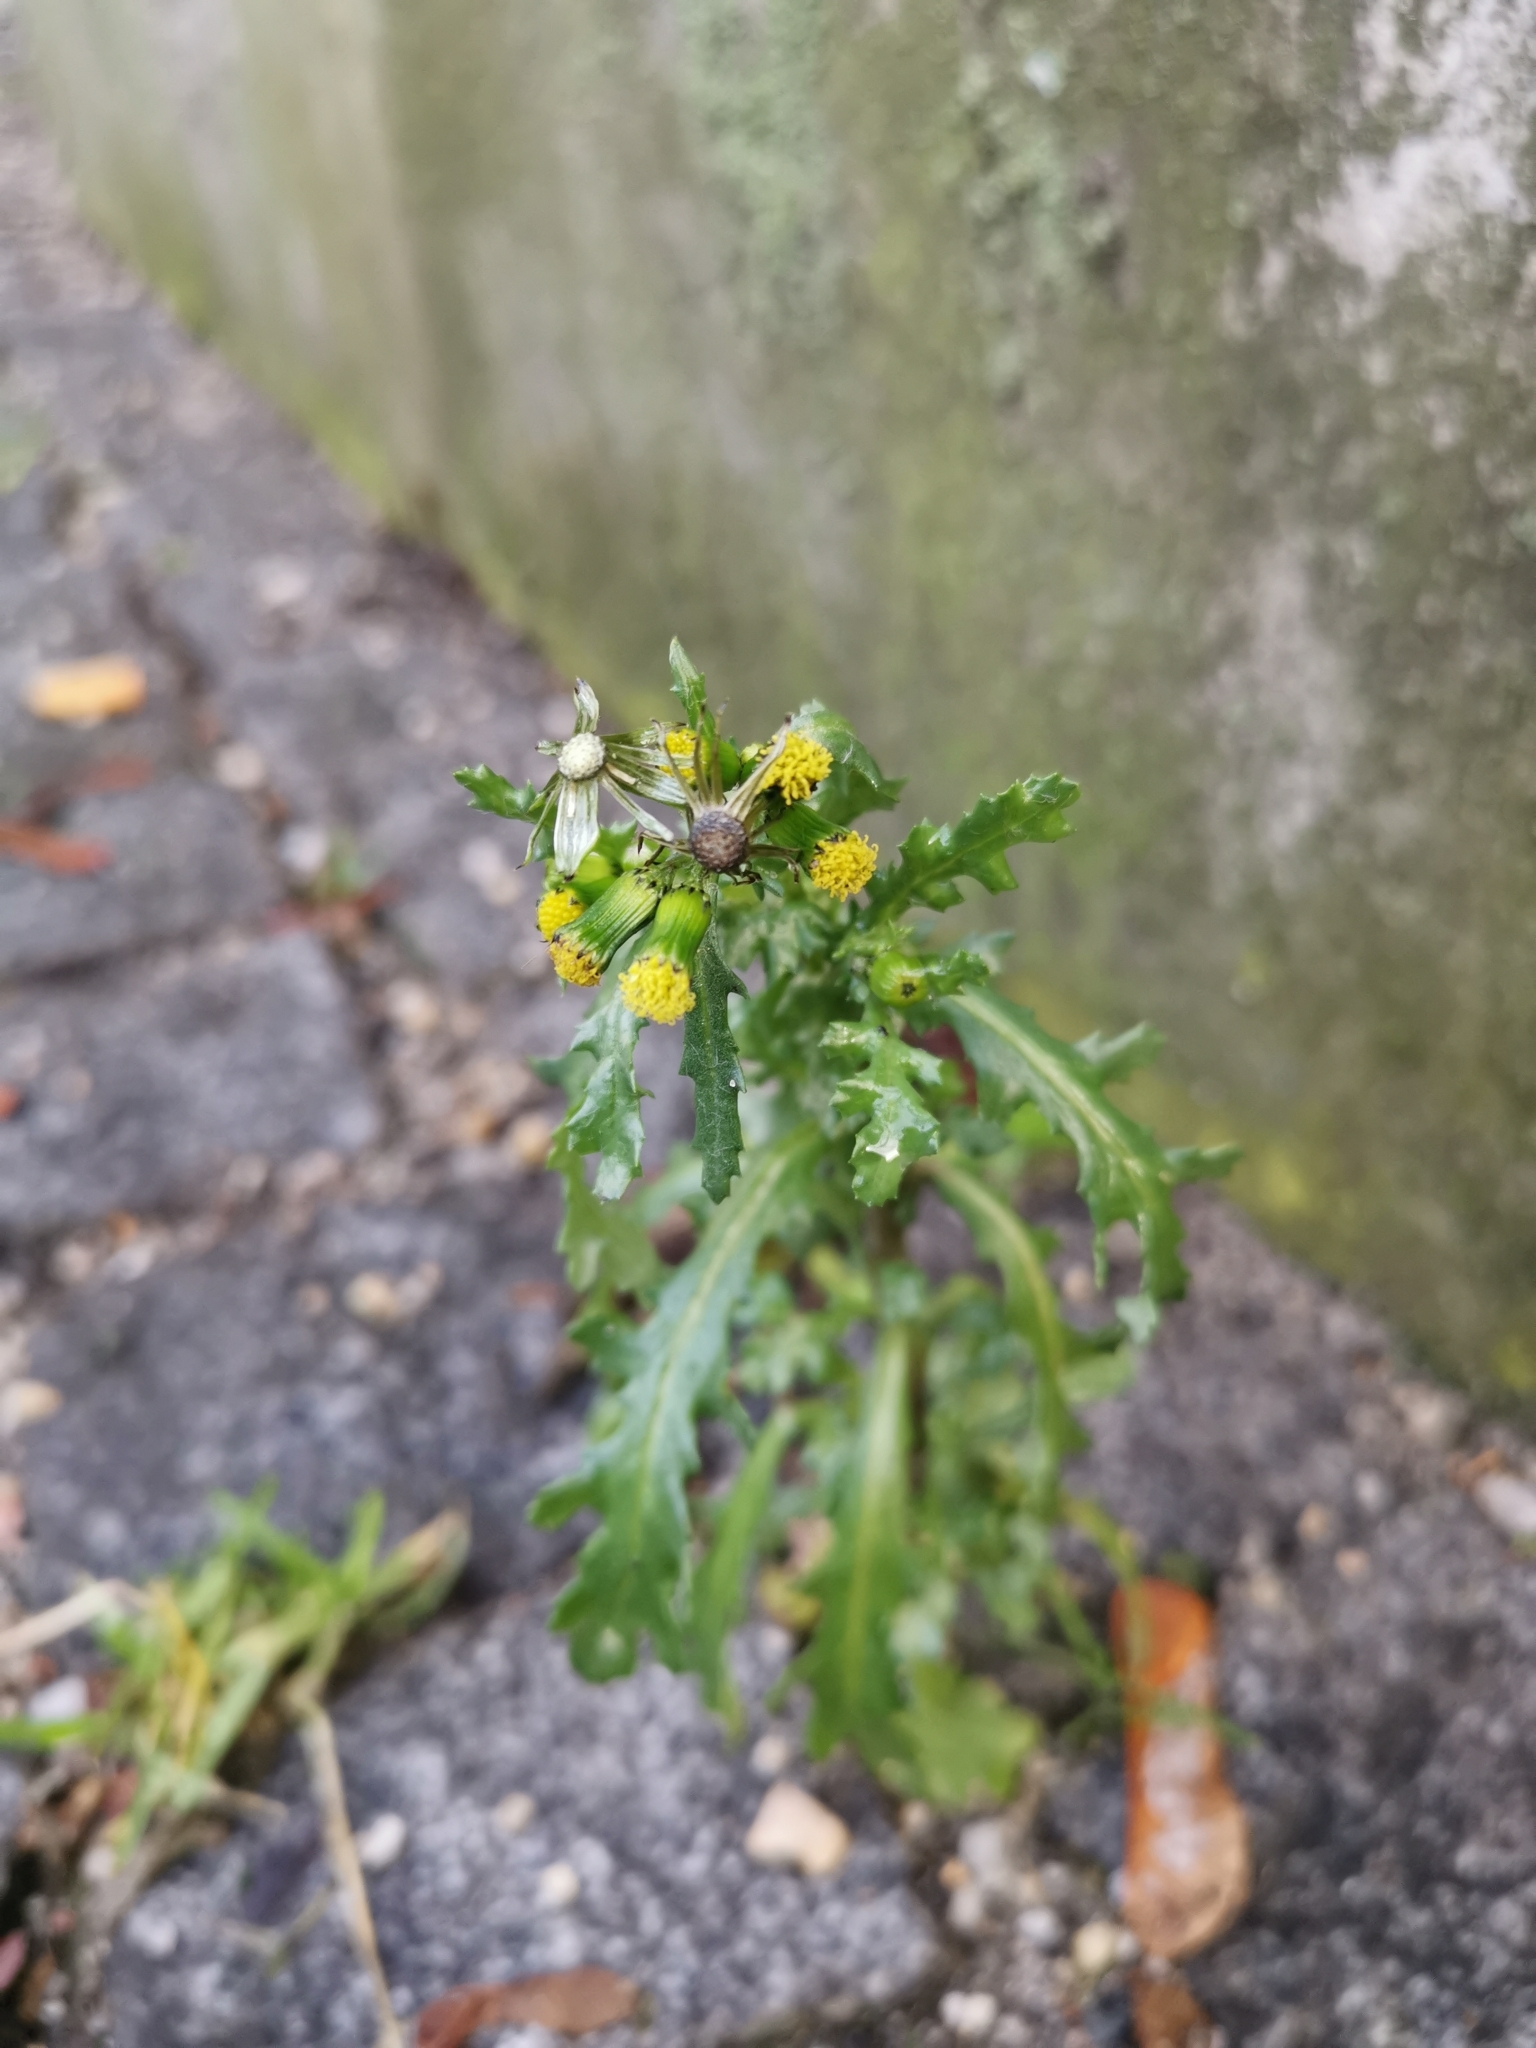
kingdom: Plantae
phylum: Tracheophyta
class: Magnoliopsida
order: Asterales
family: Asteraceae
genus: Senecio
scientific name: Senecio vulgaris
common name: Old-man-in-the-spring
